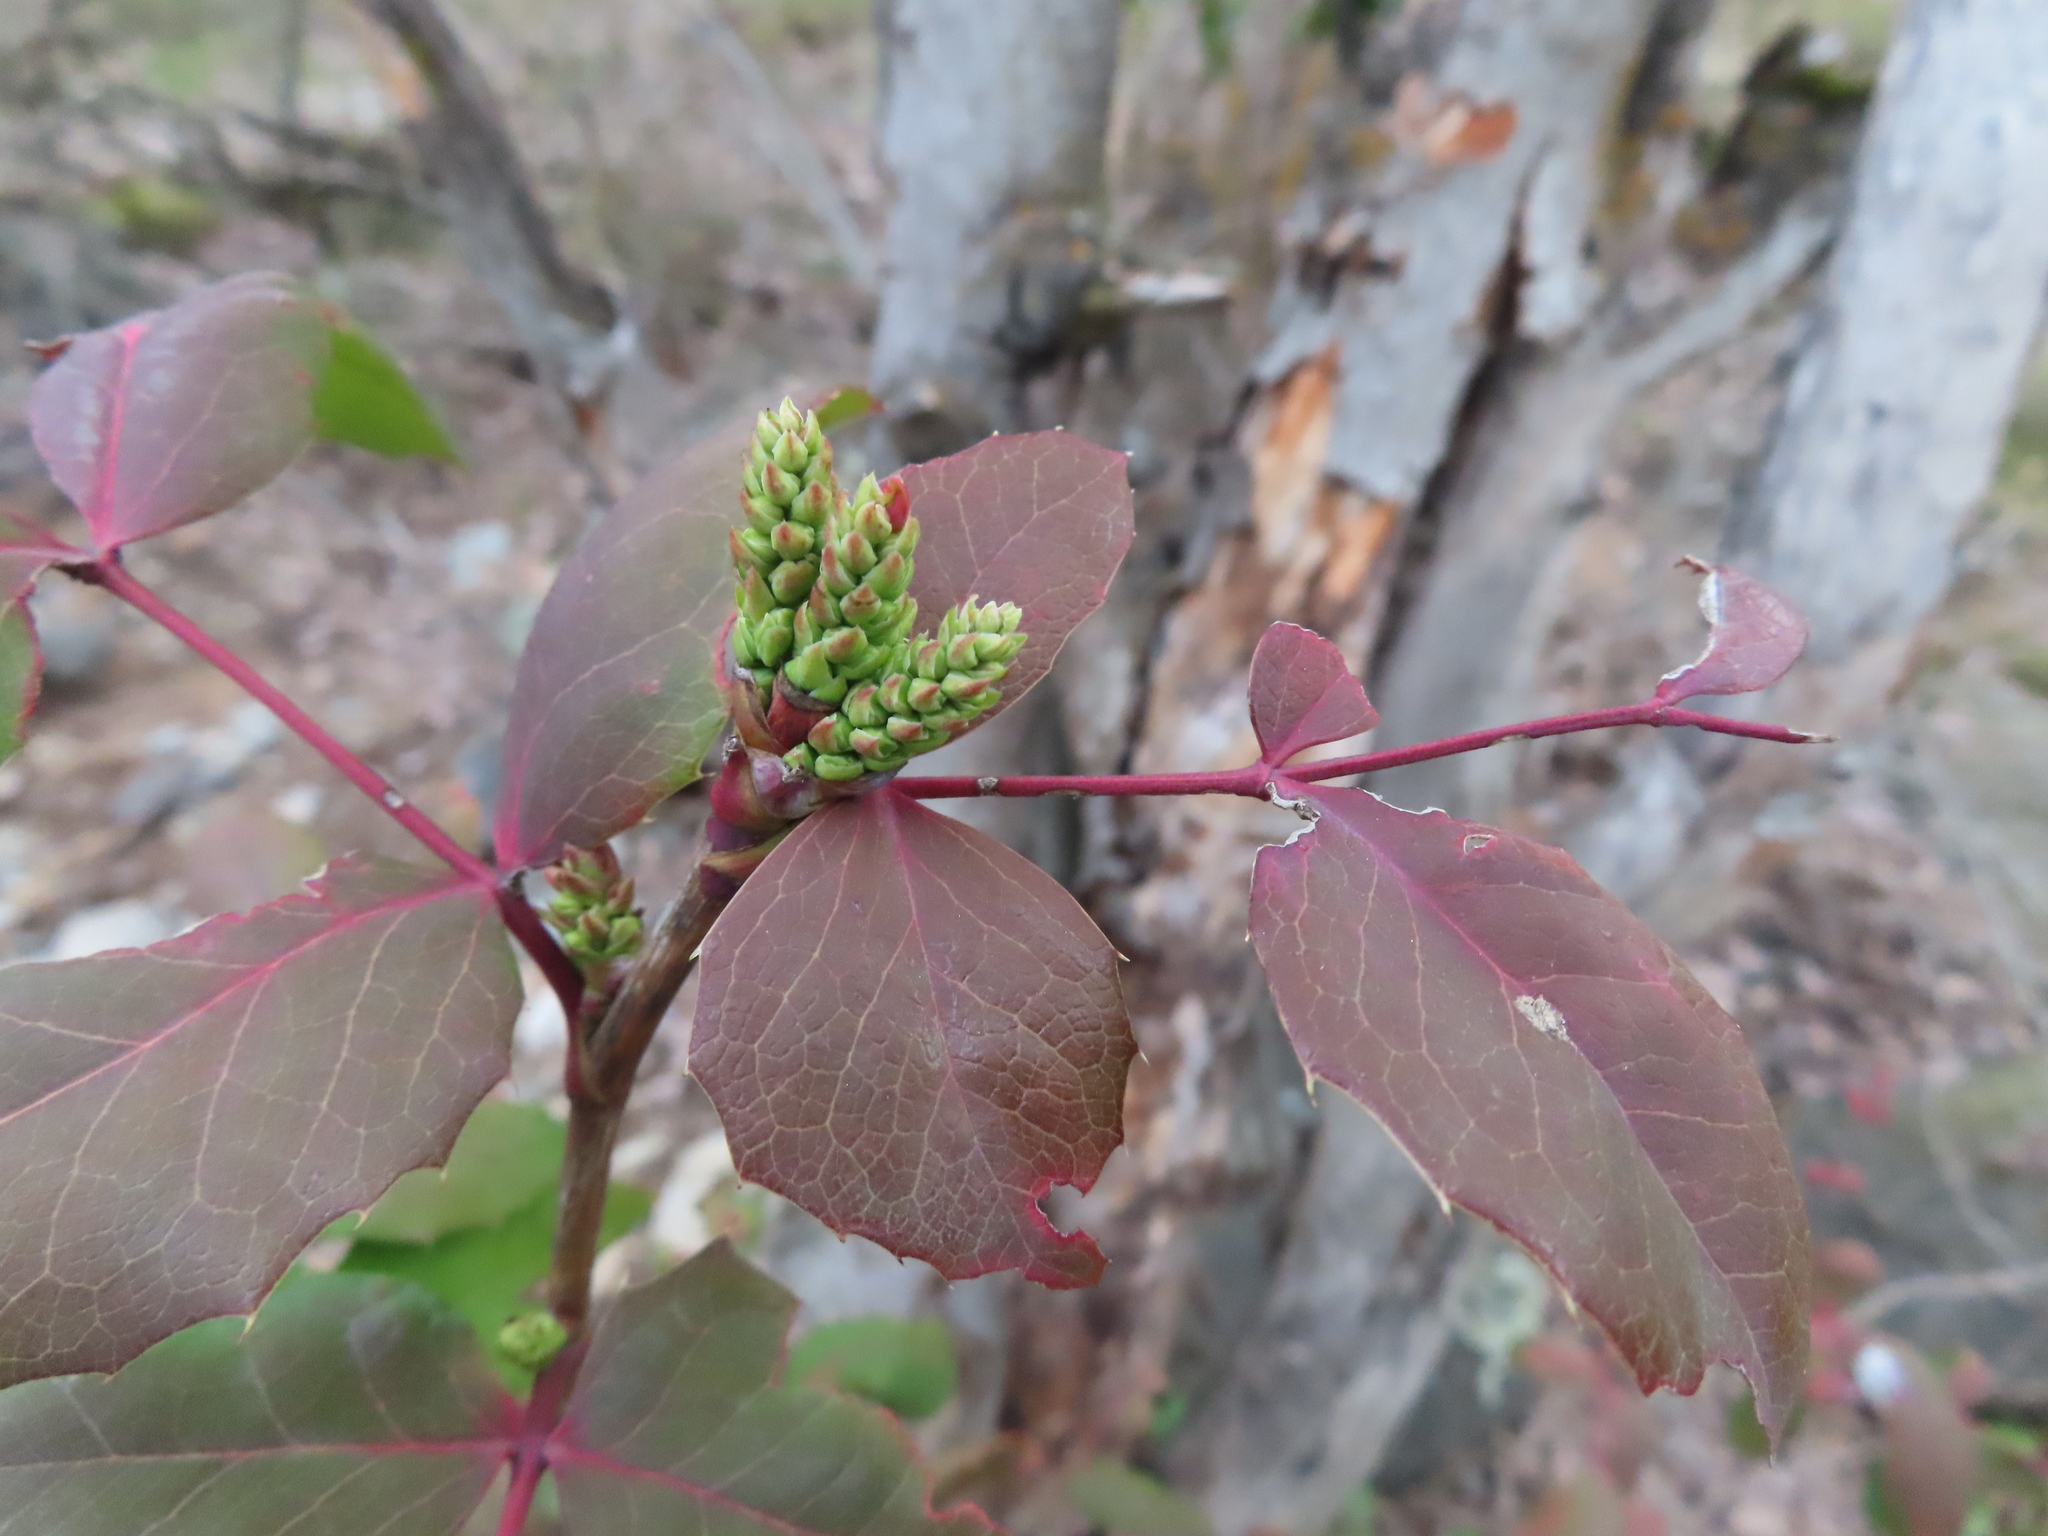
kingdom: Plantae
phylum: Tracheophyta
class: Magnoliopsida
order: Ranunculales
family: Berberidaceae
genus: Mahonia
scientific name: Mahonia aquifolium
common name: Oregon-grape
